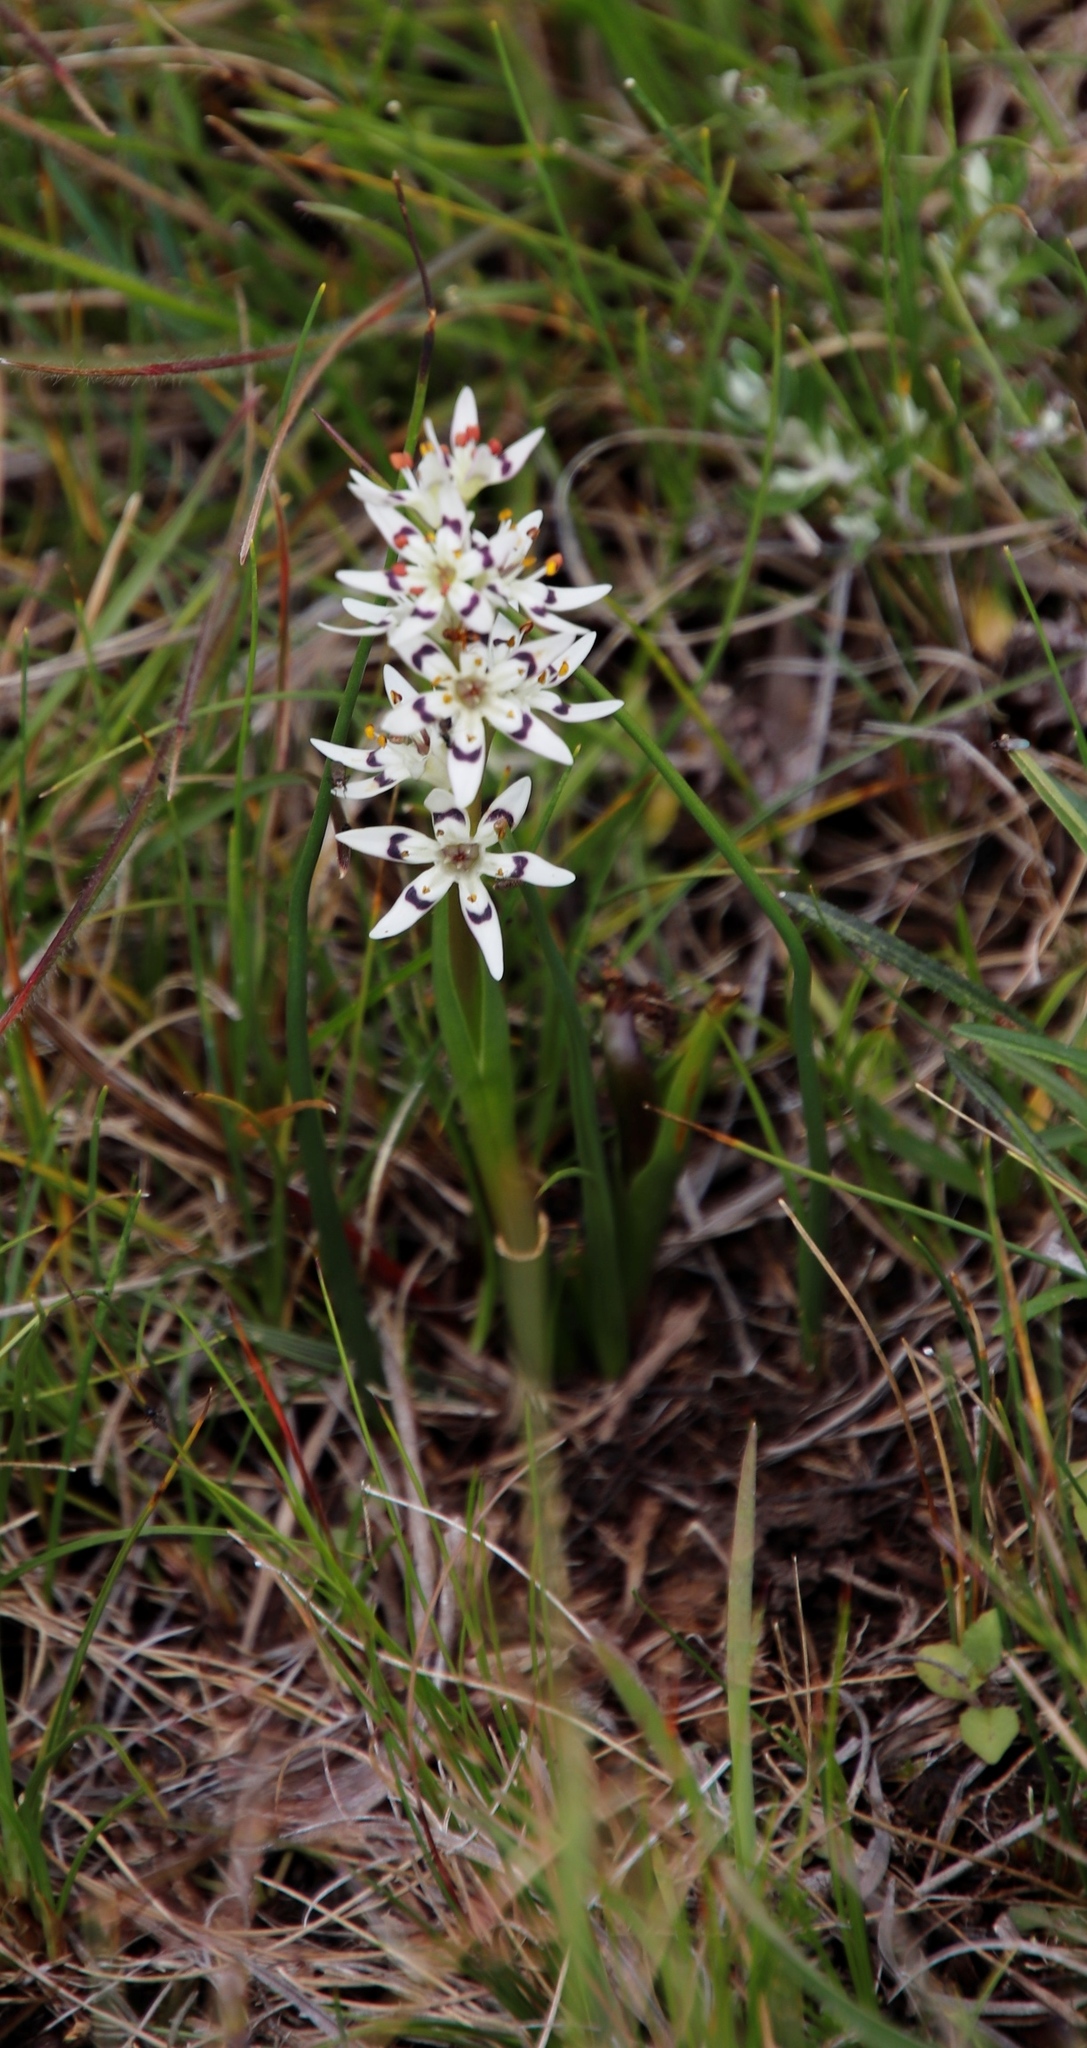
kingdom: Plantae
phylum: Tracheophyta
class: Liliopsida
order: Liliales
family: Colchicaceae
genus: Wurmbea
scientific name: Wurmbea elatior
